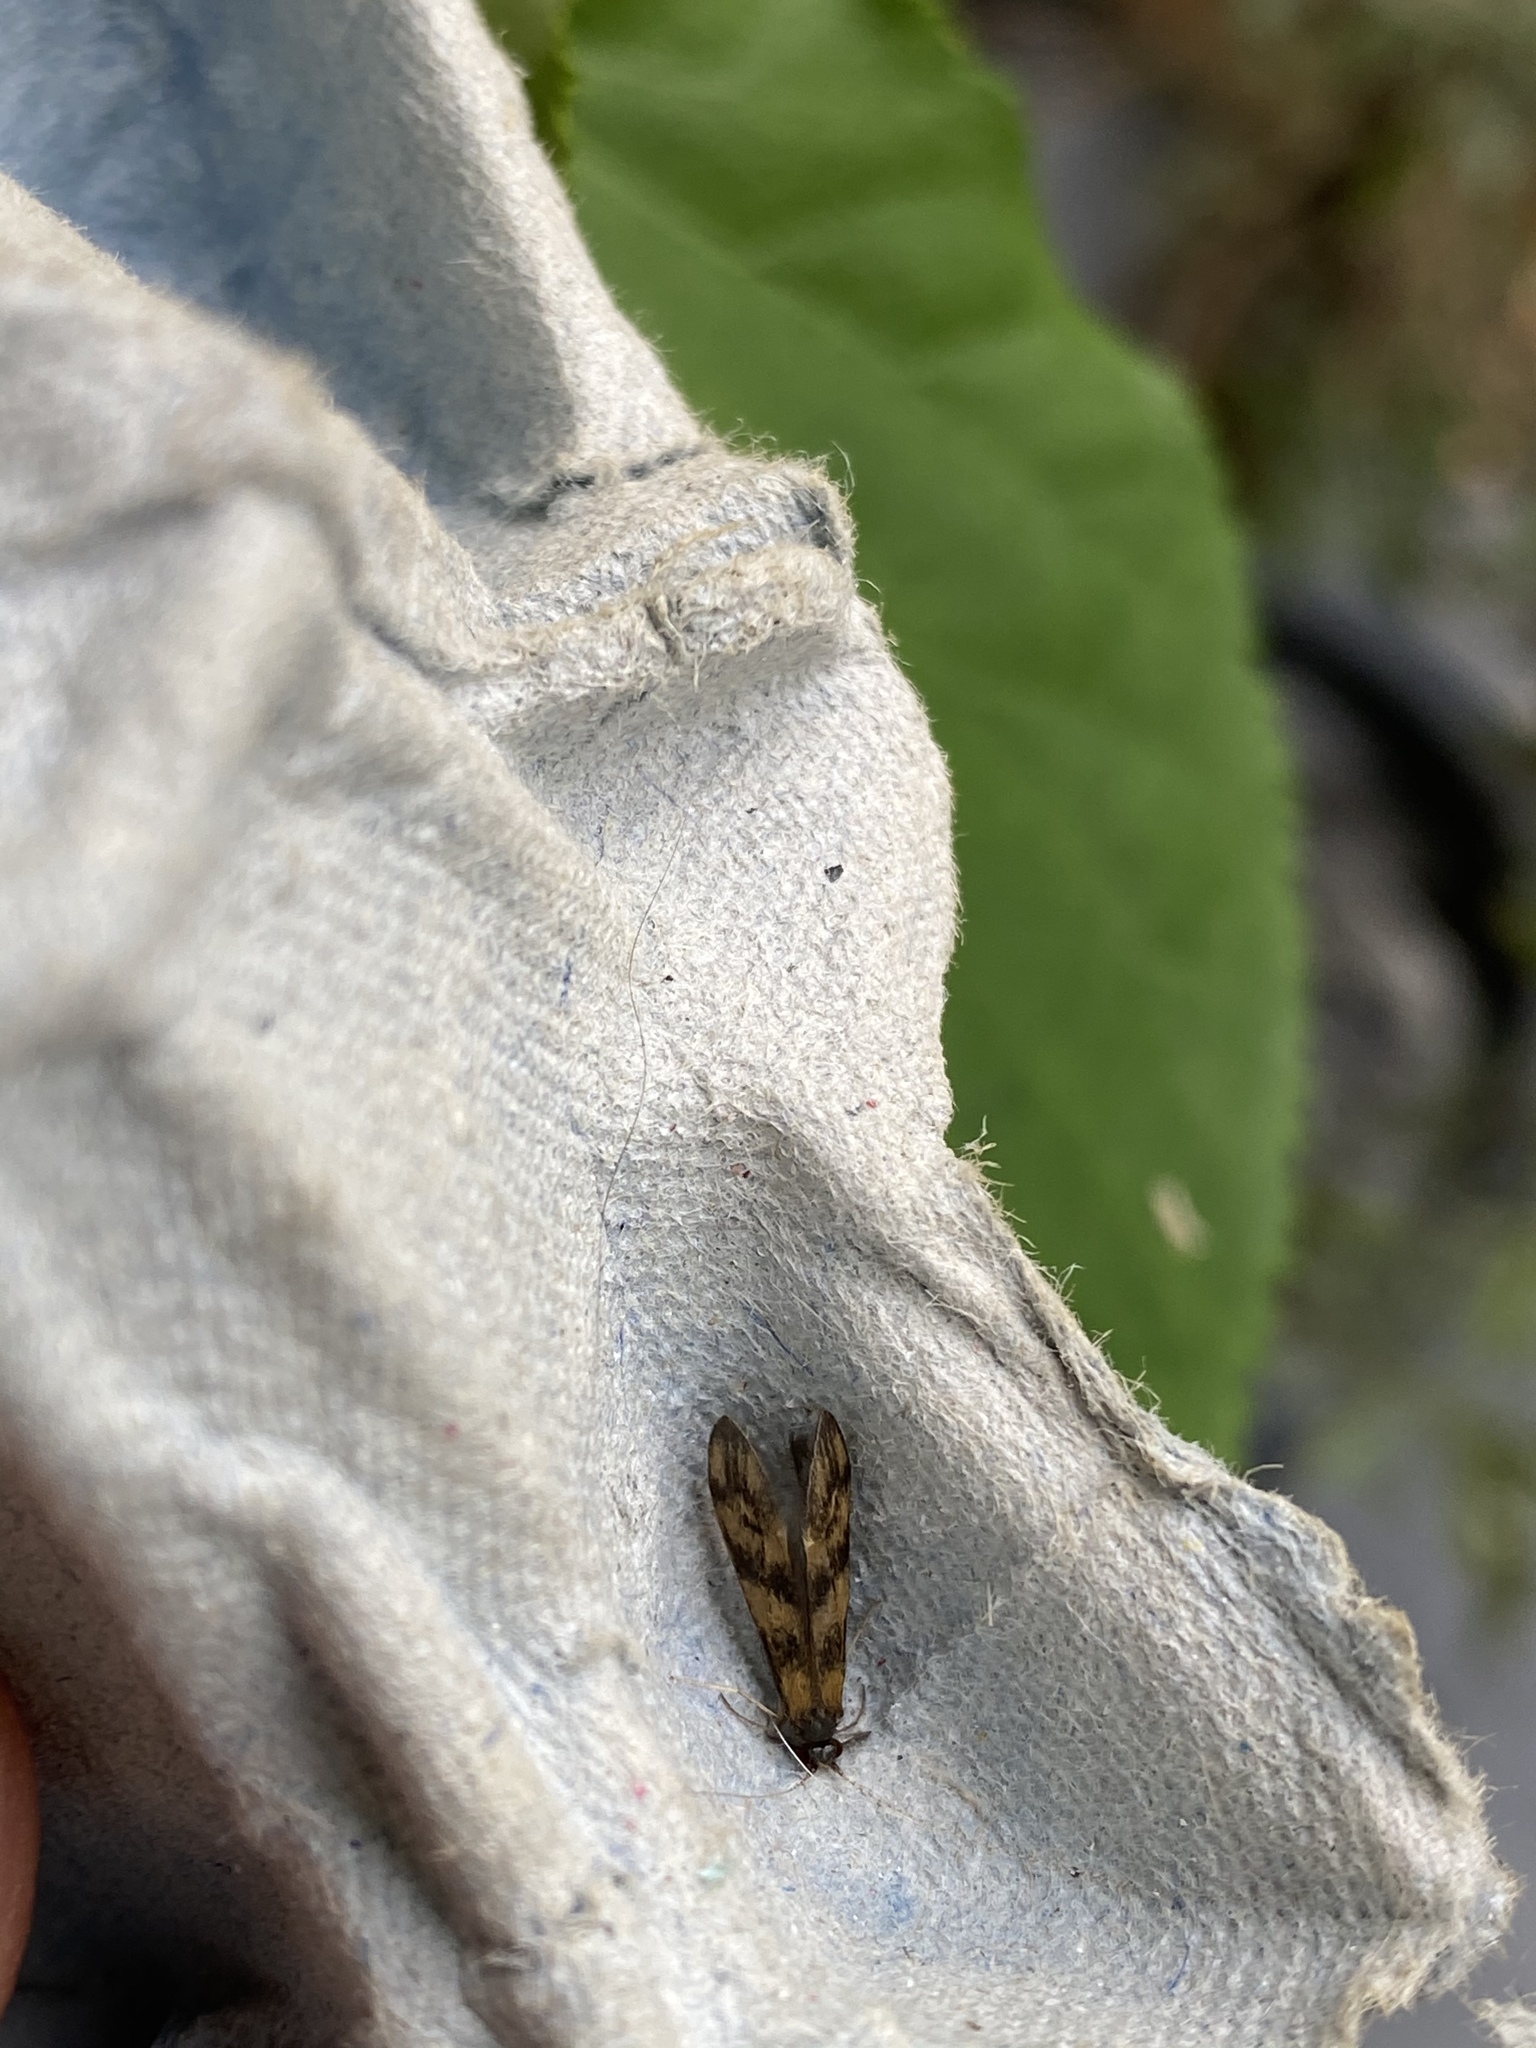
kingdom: Animalia
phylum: Arthropoda
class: Insecta
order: Trichoptera
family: Leptoceridae
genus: Mystacides
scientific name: Mystacides longicornis
